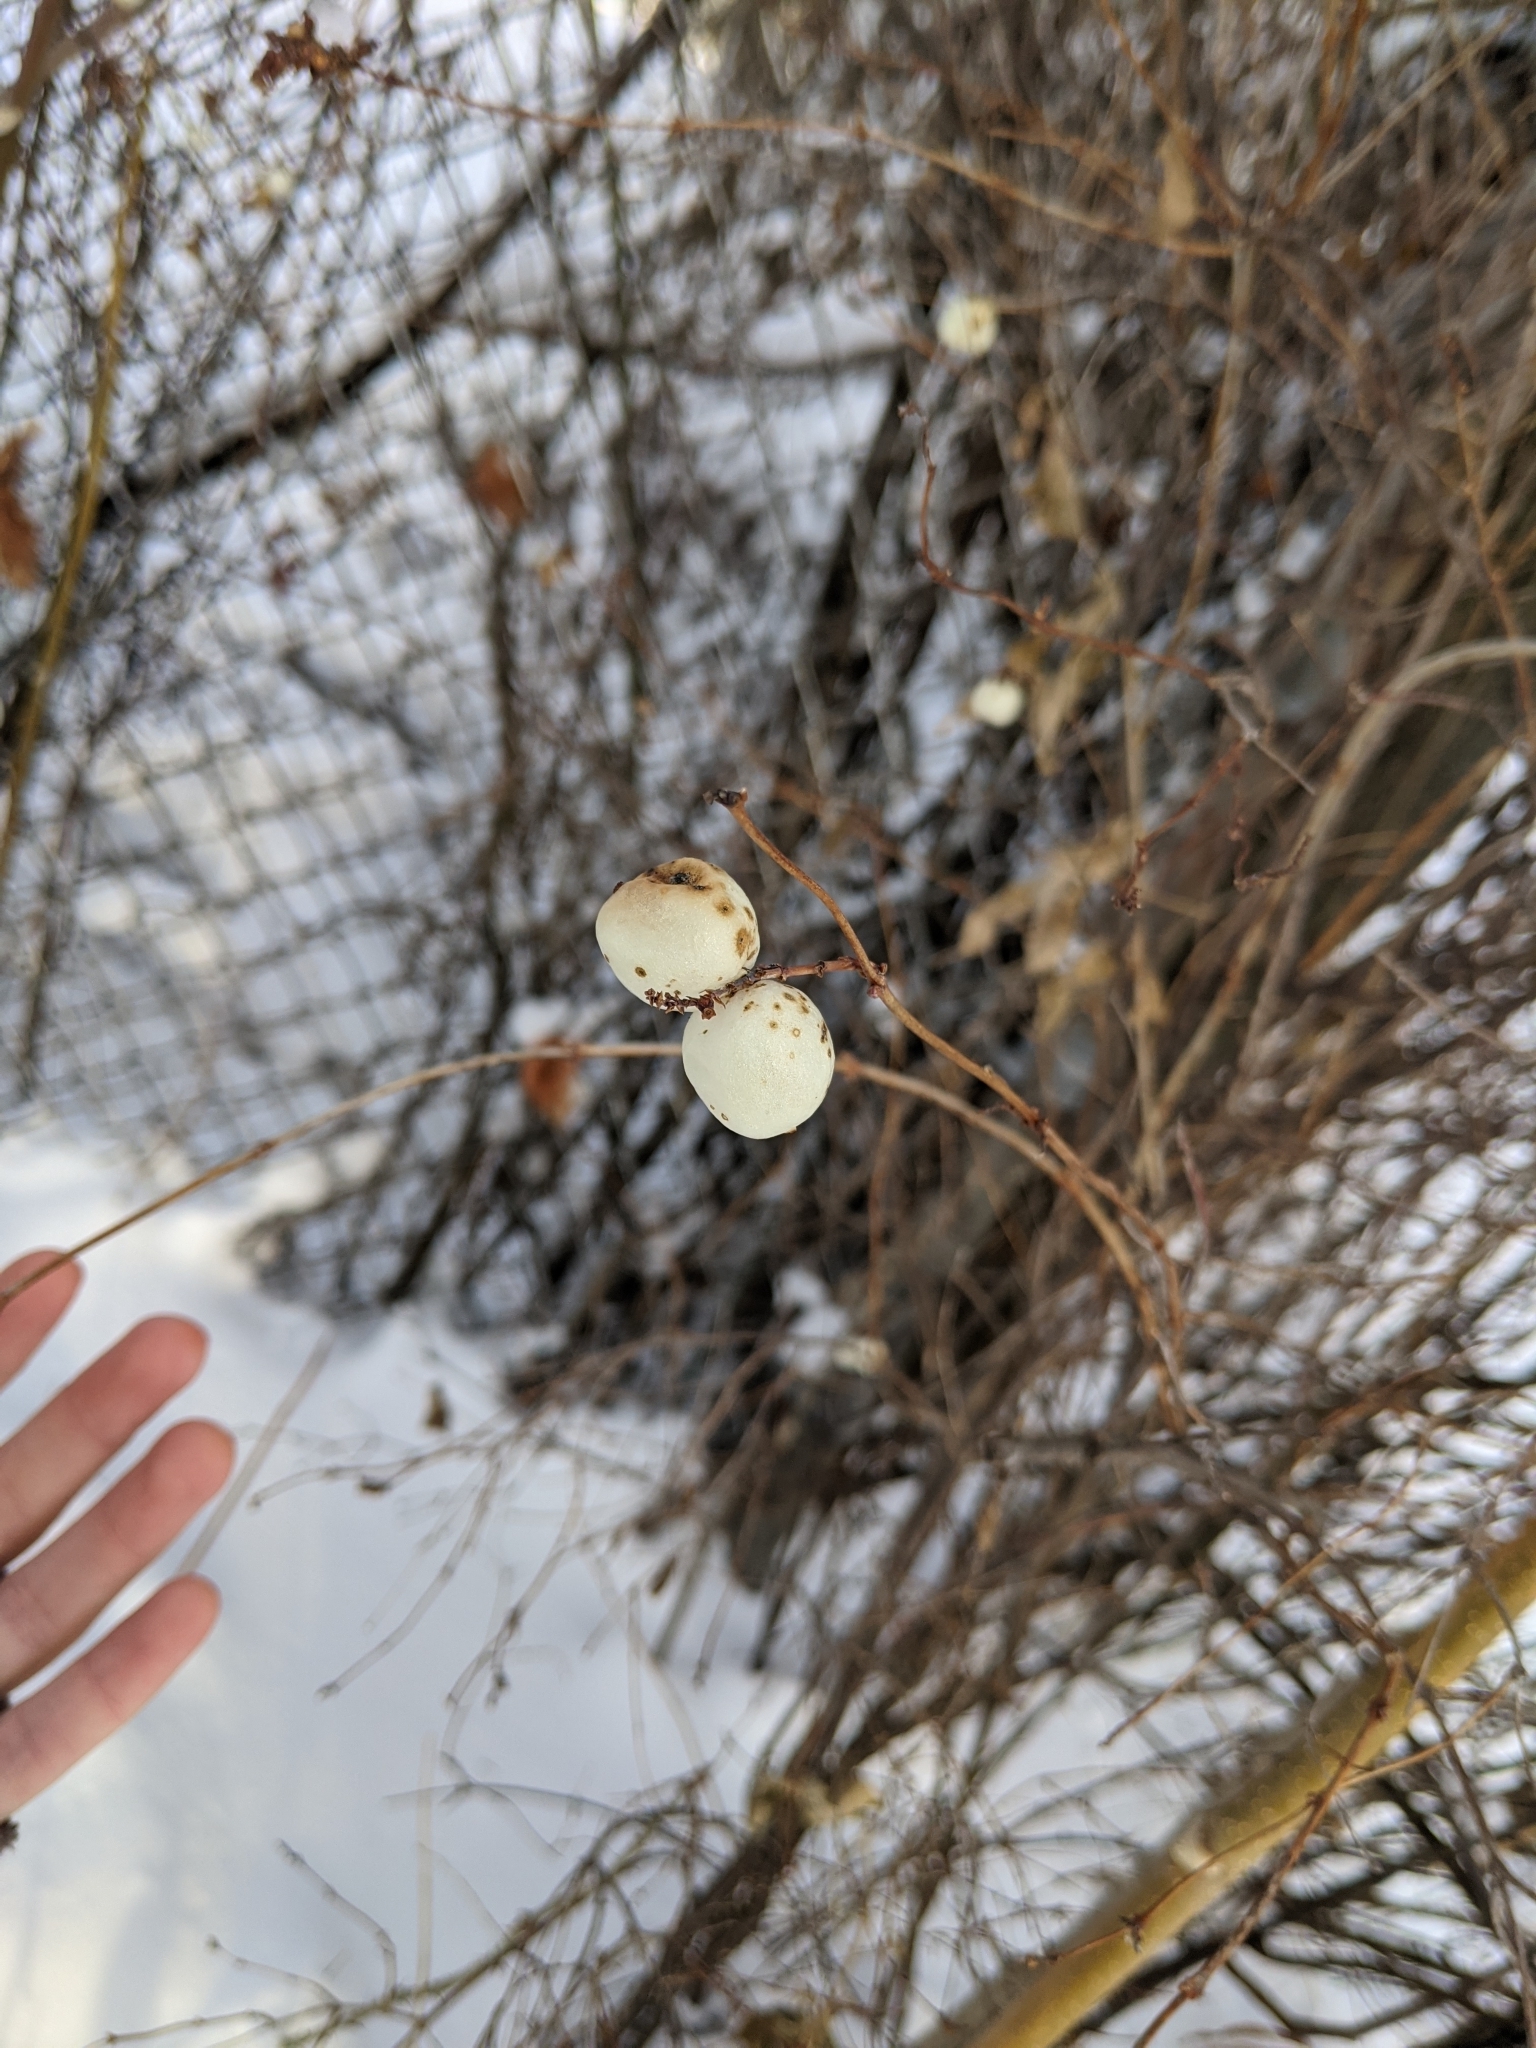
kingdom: Plantae
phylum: Tracheophyta
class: Magnoliopsida
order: Dipsacales
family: Caprifoliaceae
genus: Symphoricarpos
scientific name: Symphoricarpos albus
